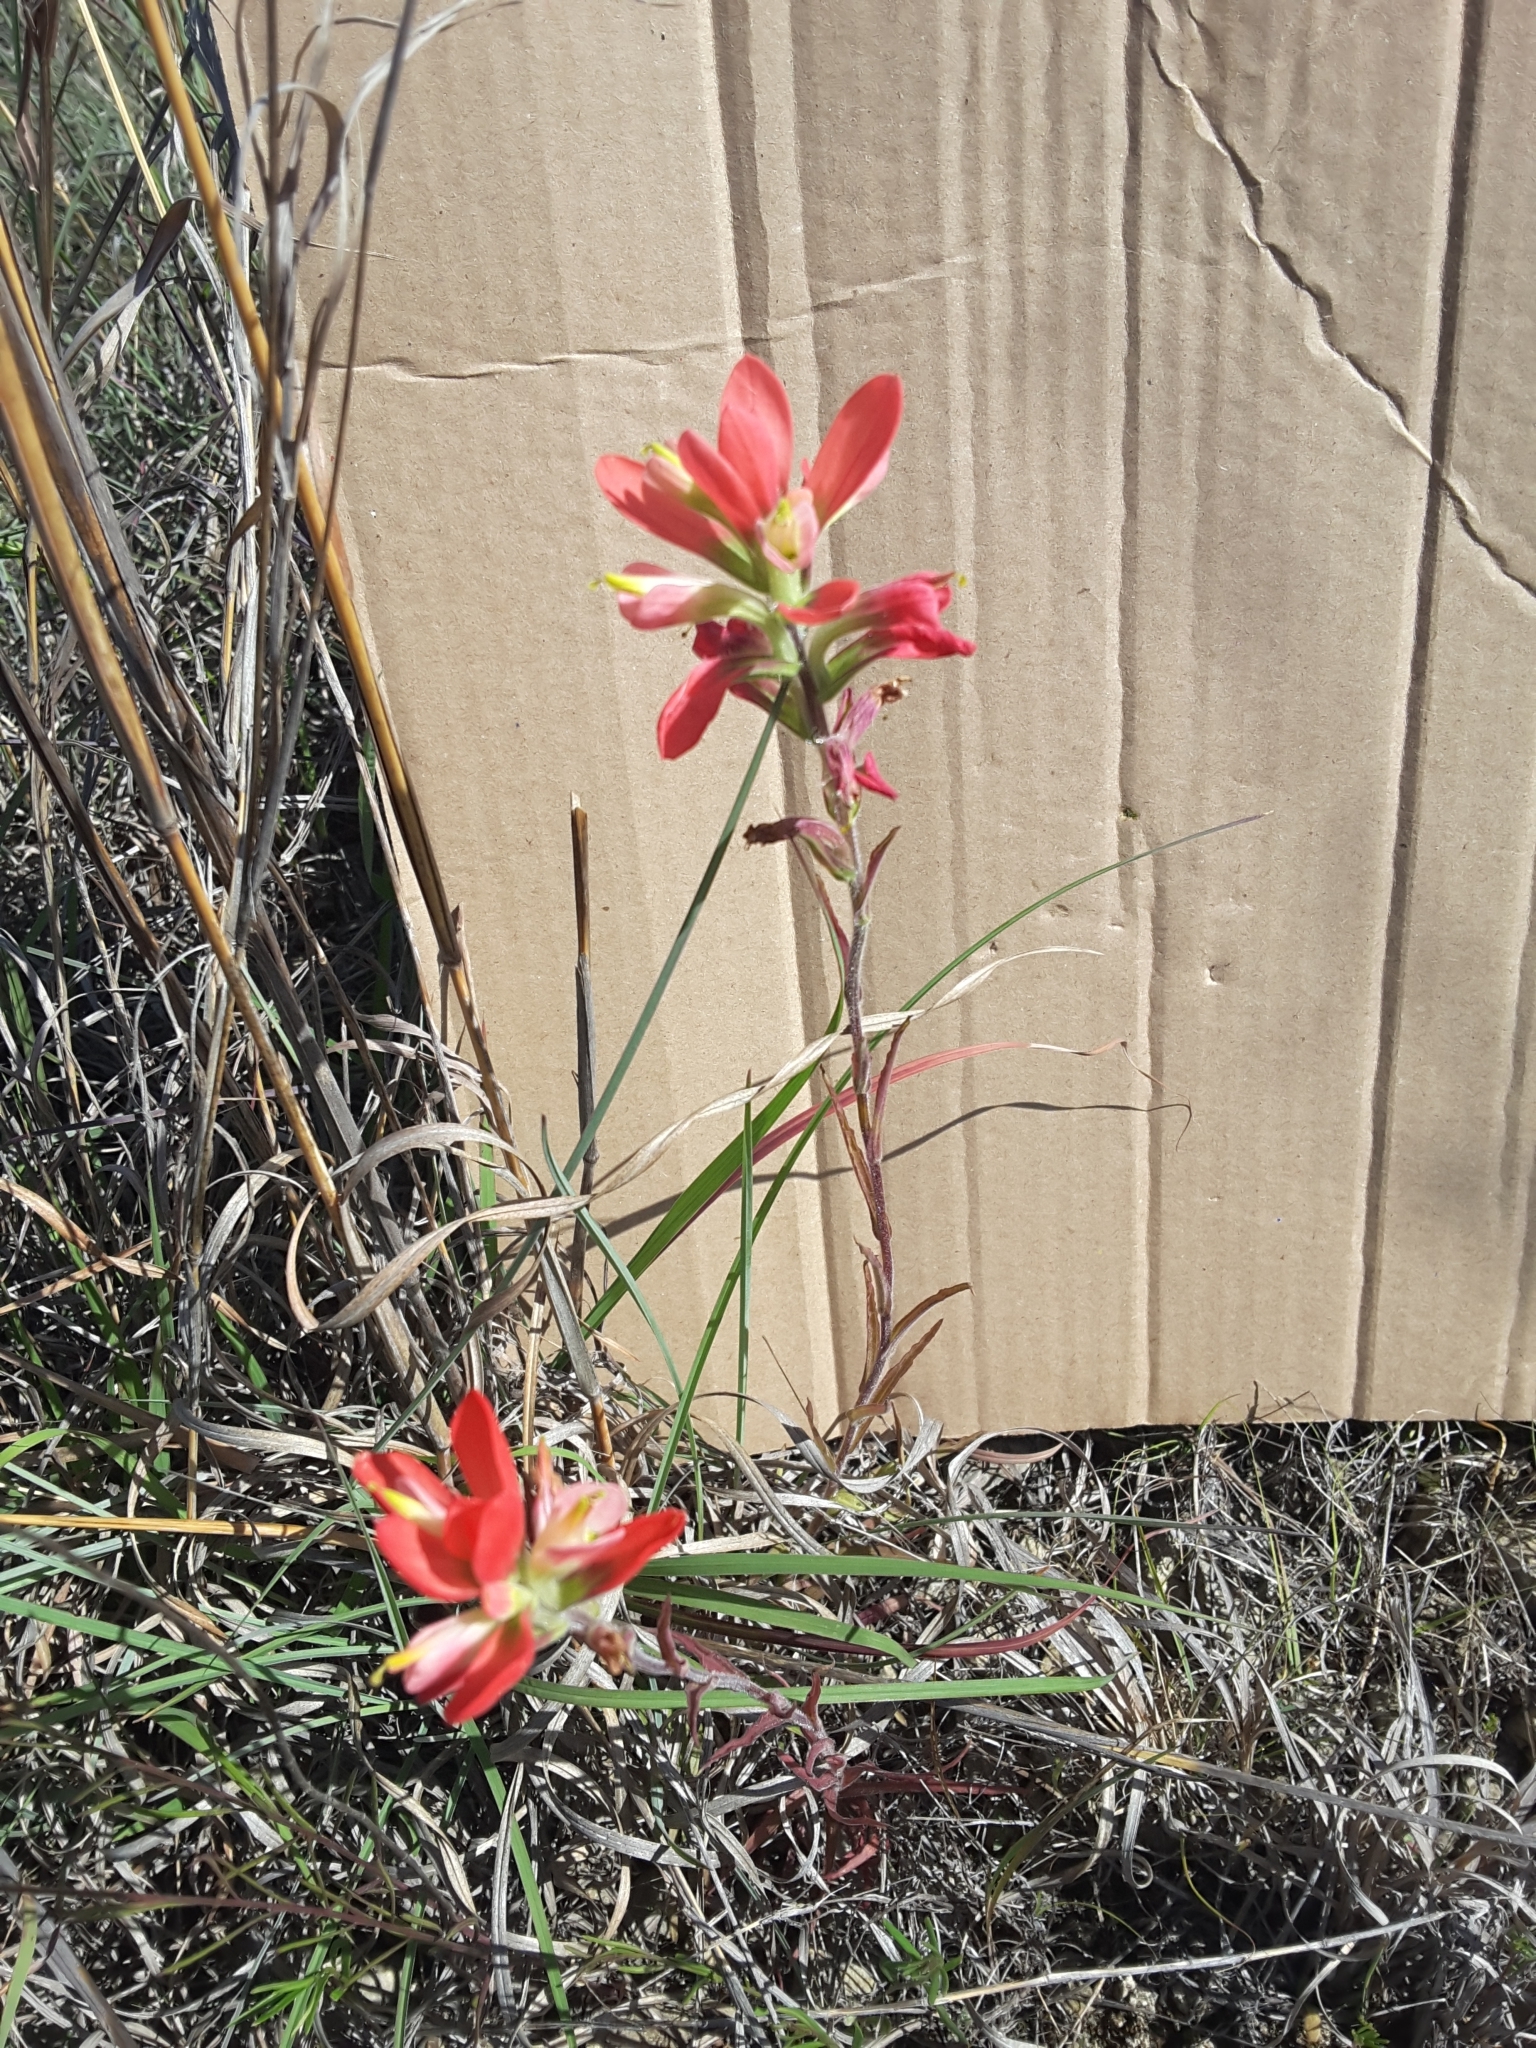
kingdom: Plantae
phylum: Tracheophyta
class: Magnoliopsida
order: Lamiales
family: Orobanchaceae
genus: Castilleja
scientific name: Castilleja indivisa
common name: Texas paintbrush
